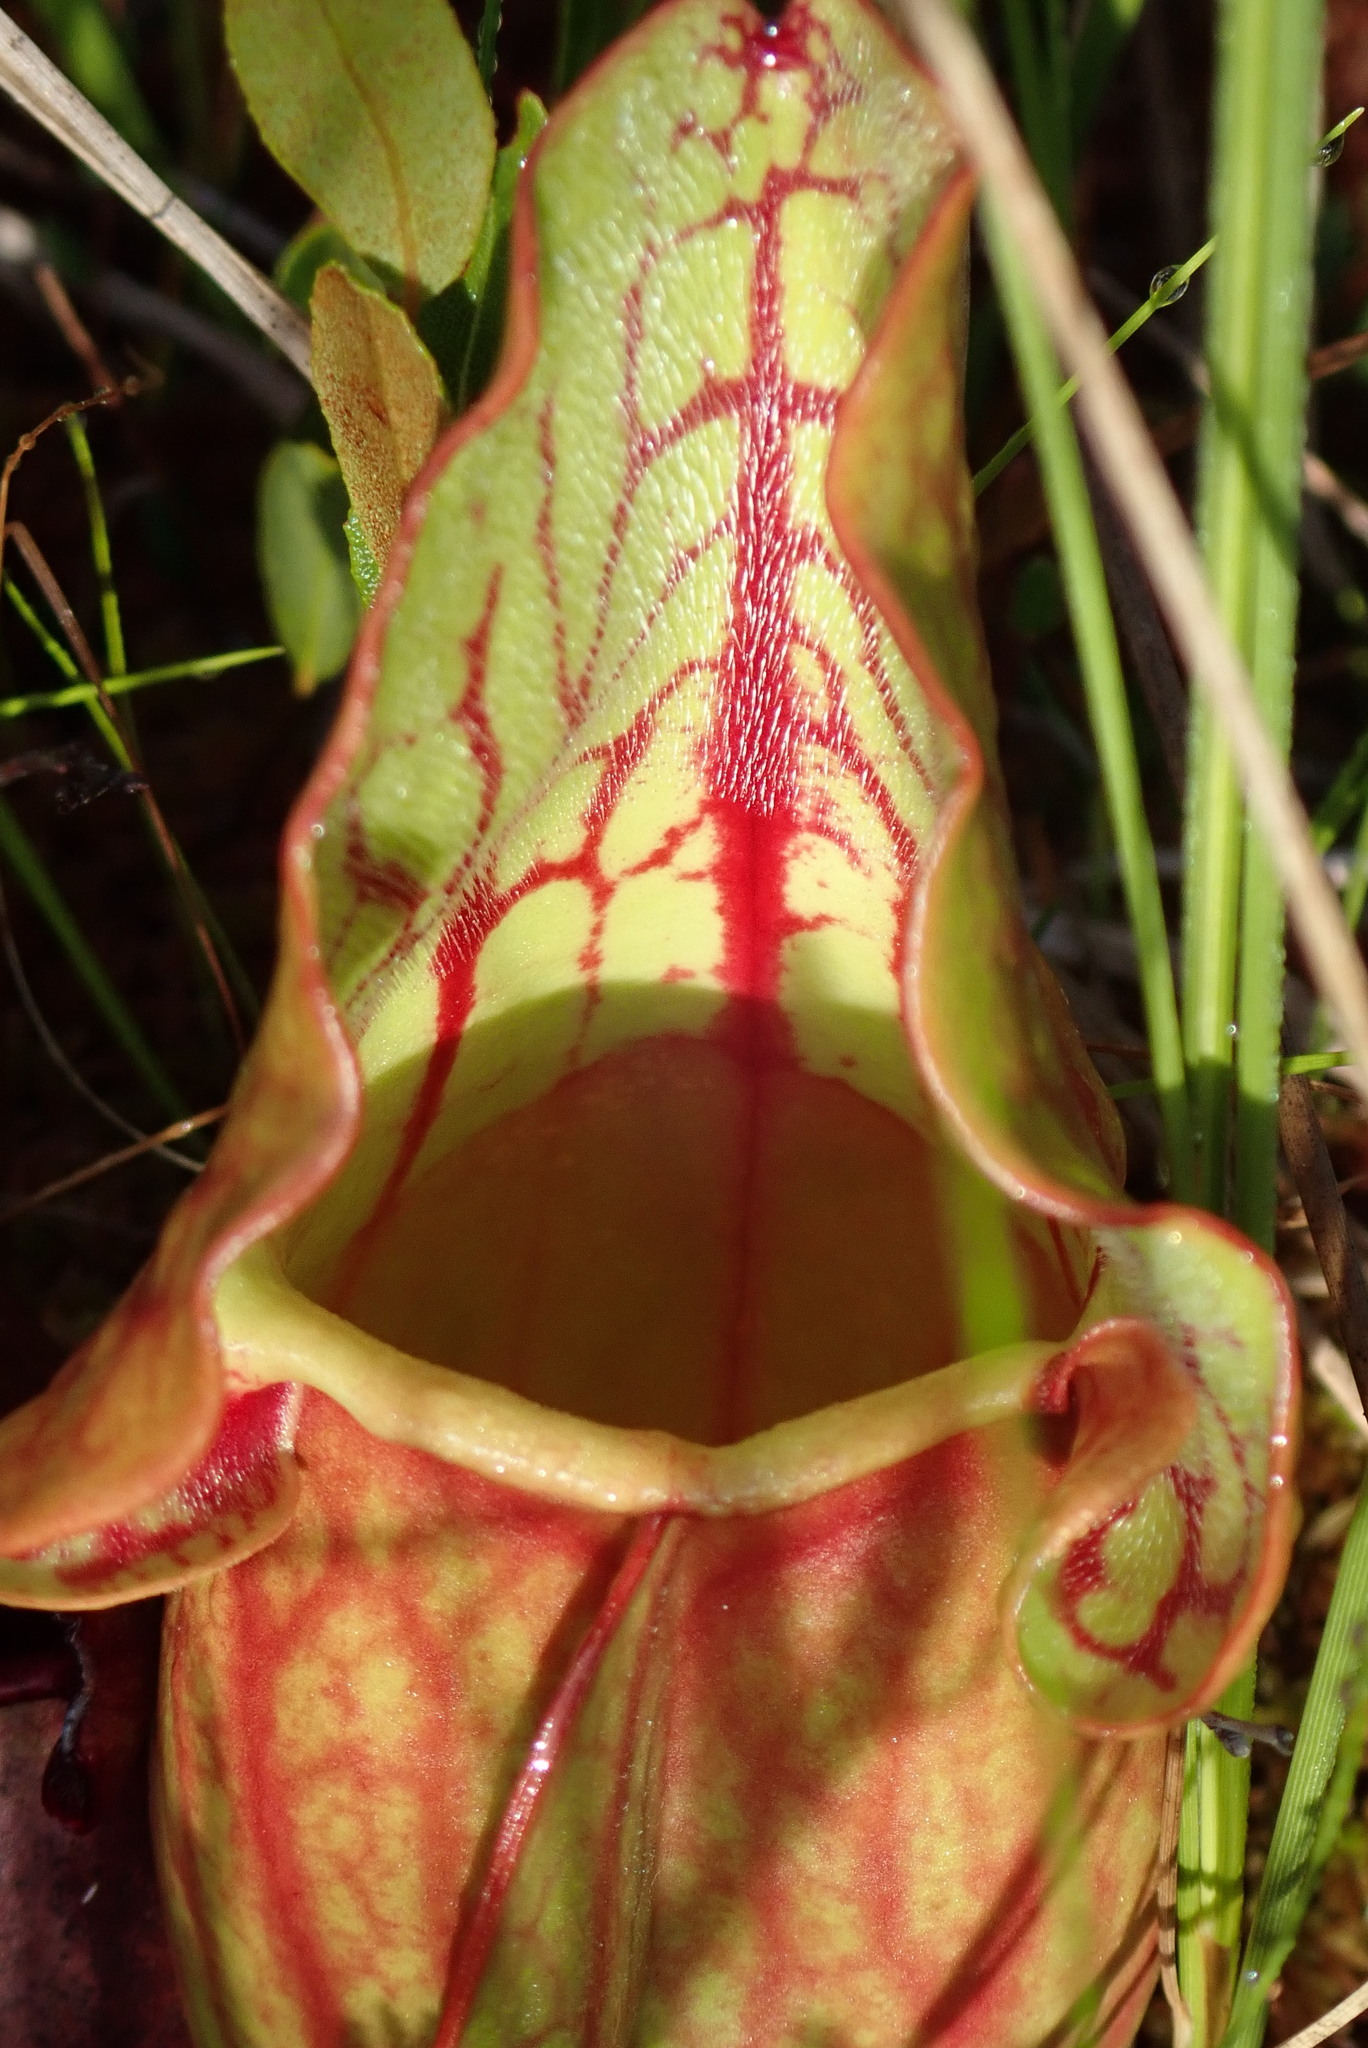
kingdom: Plantae
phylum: Tracheophyta
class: Magnoliopsida
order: Ericales
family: Sarraceniaceae
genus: Sarracenia
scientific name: Sarracenia purpurea
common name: Pitcherplant
